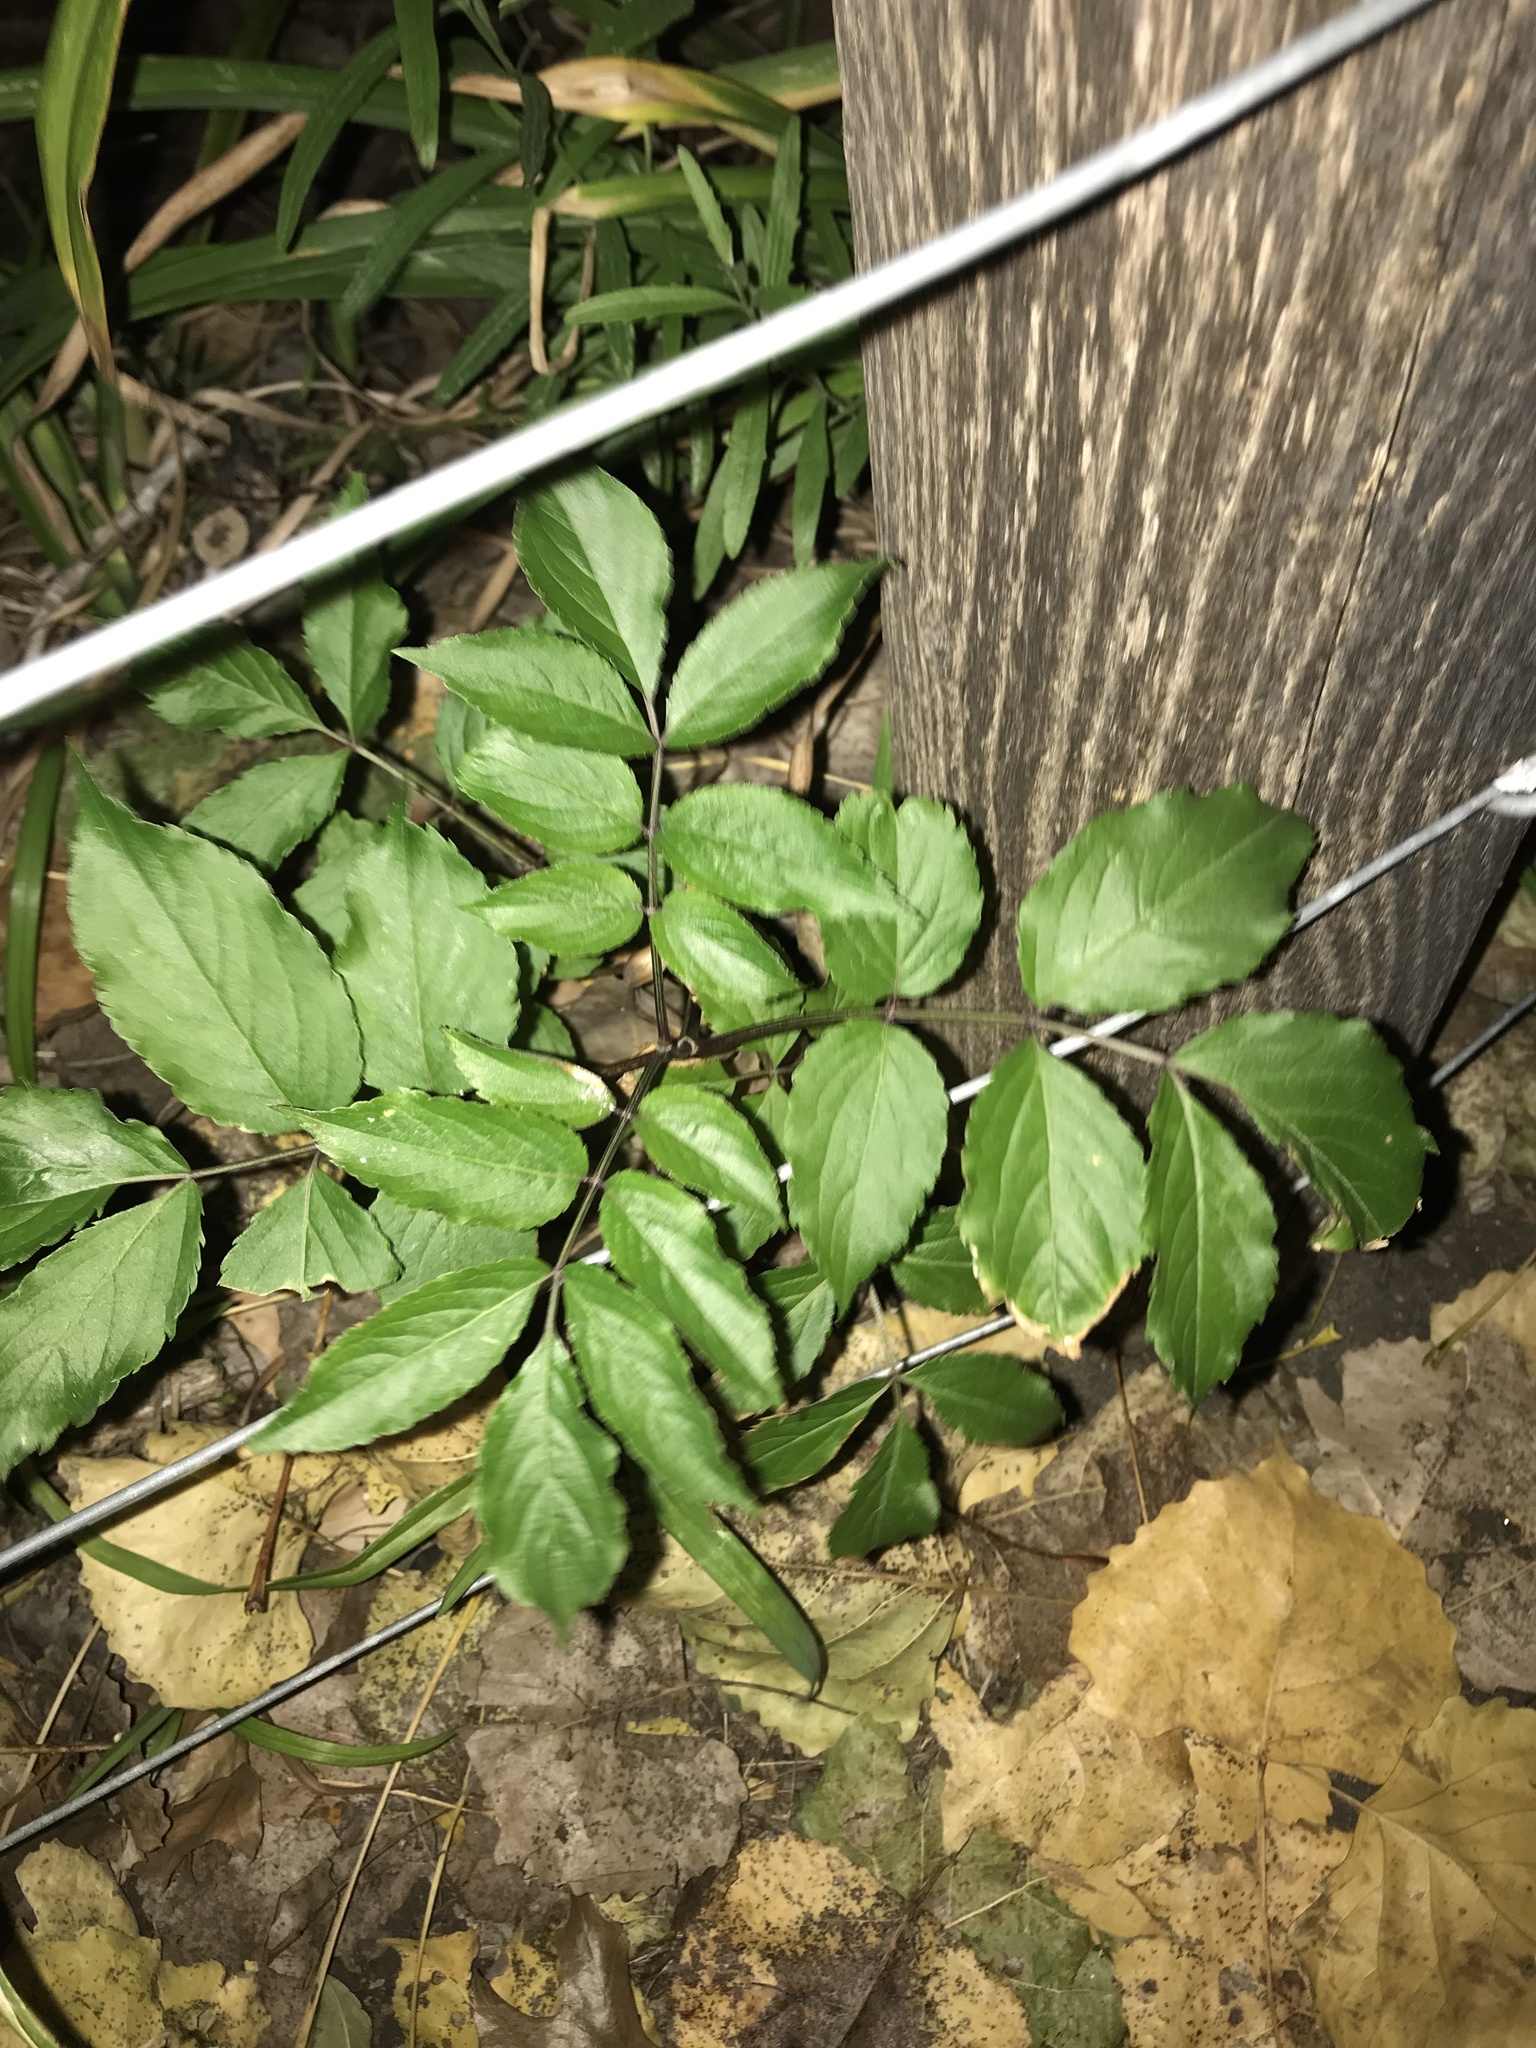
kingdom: Plantae
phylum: Tracheophyta
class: Magnoliopsida
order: Dipsacales
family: Viburnaceae
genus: Sambucus
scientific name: Sambucus canadensis
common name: American elder
